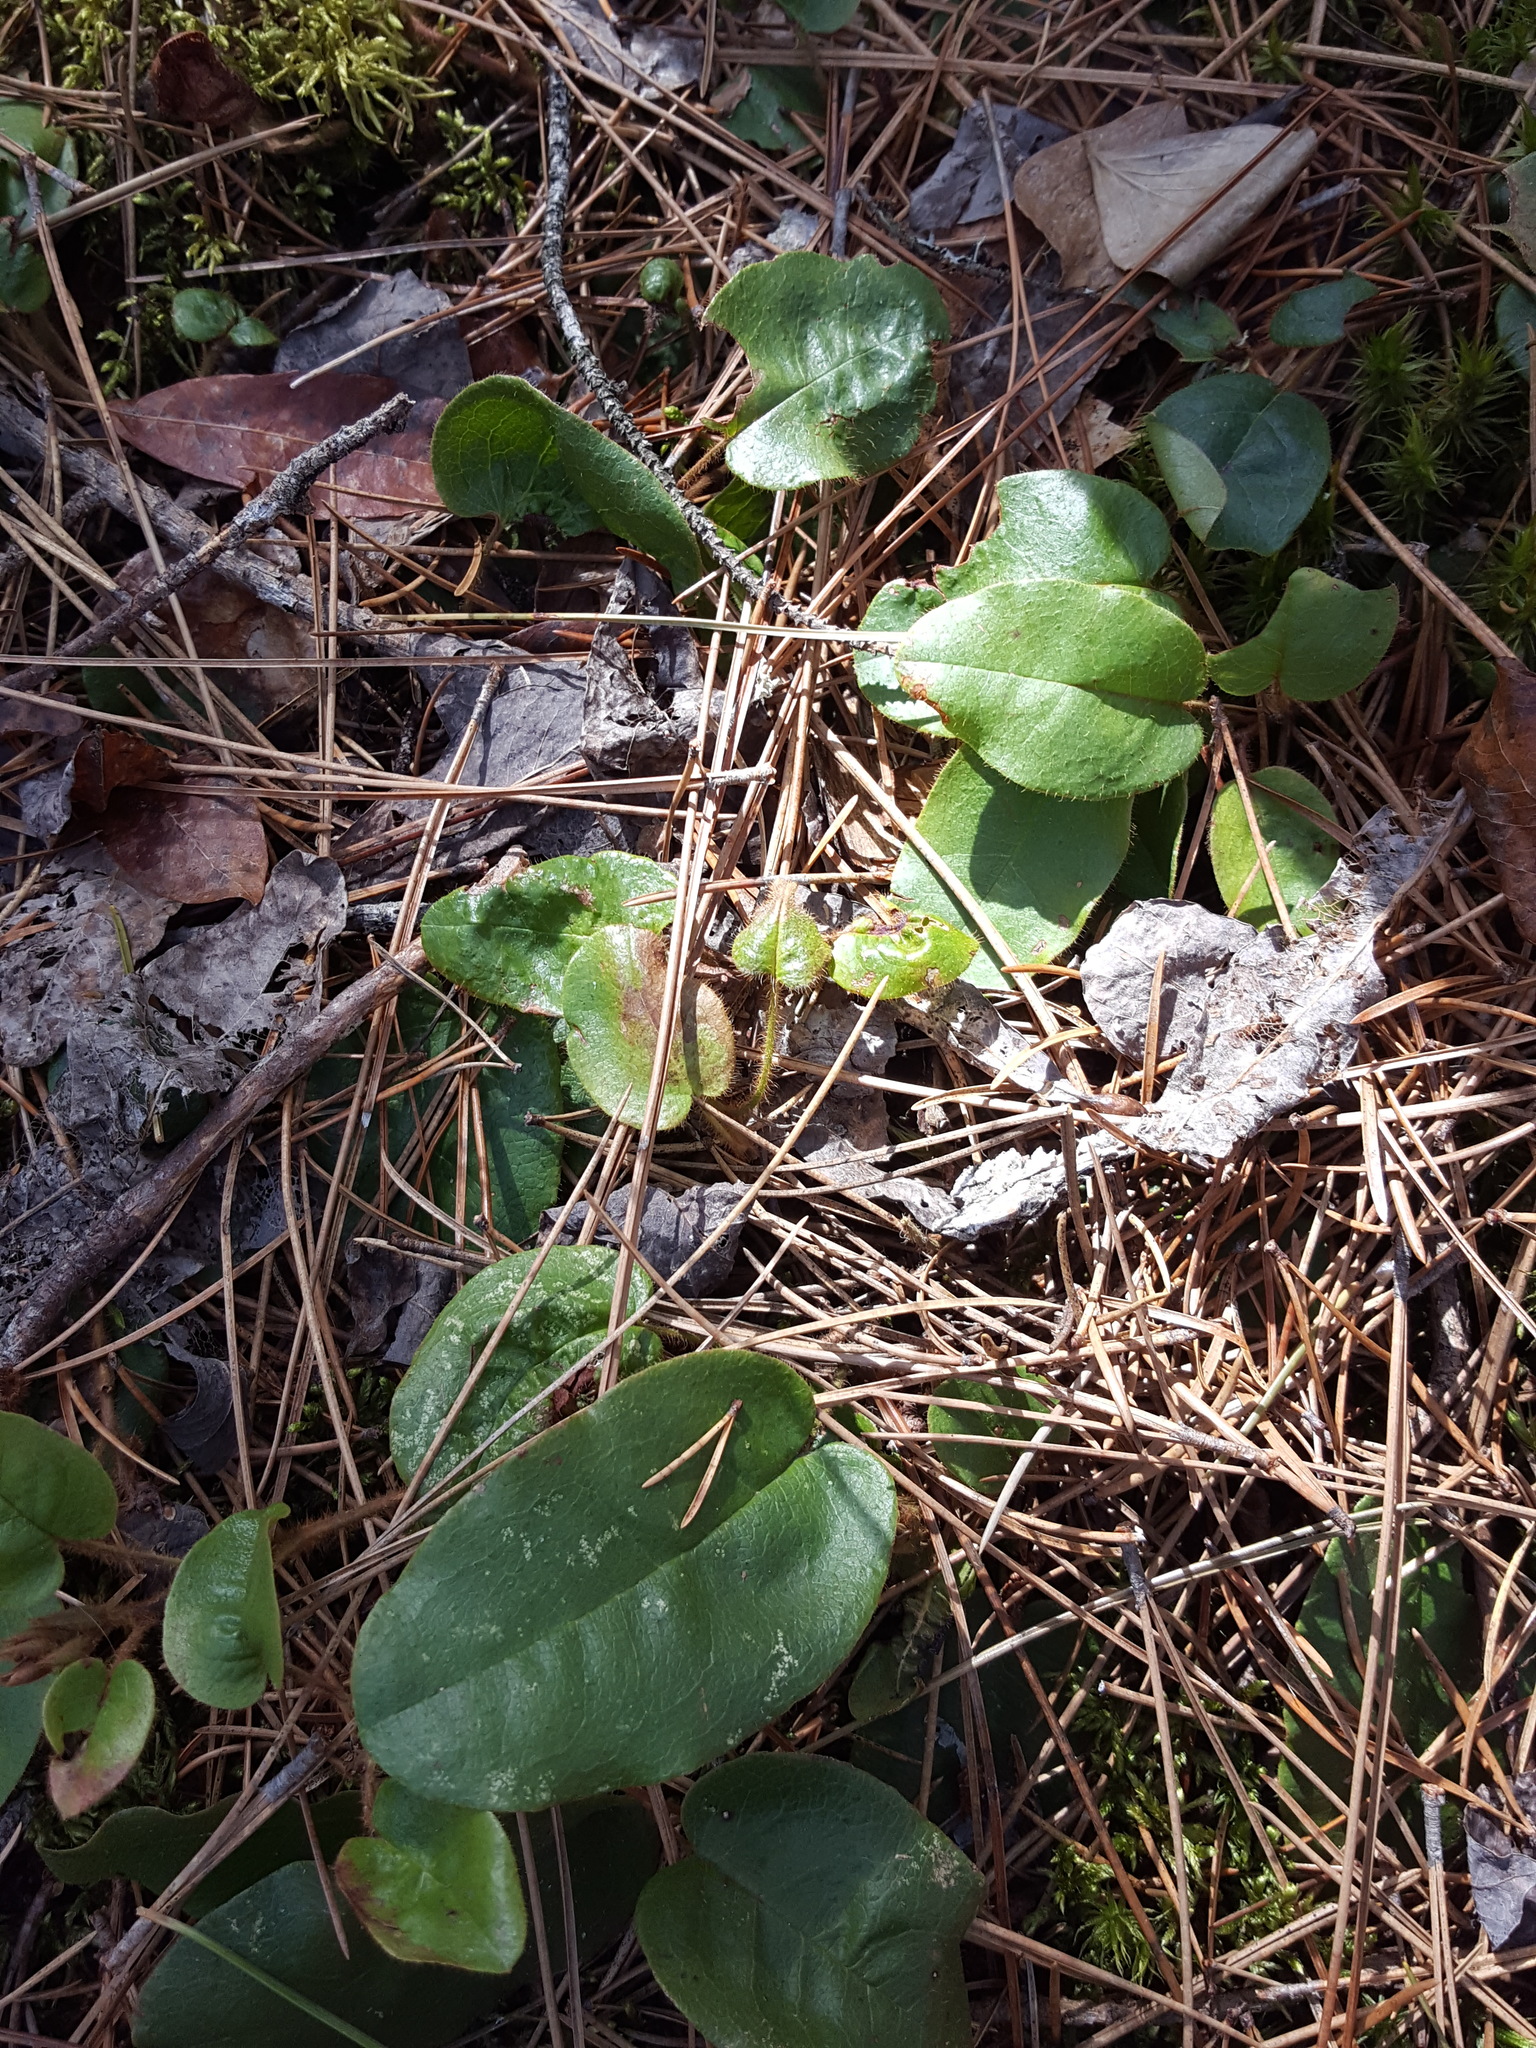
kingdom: Plantae
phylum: Tracheophyta
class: Magnoliopsida
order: Ericales
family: Ericaceae
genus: Epigaea
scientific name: Epigaea repens
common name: Gravelroot
